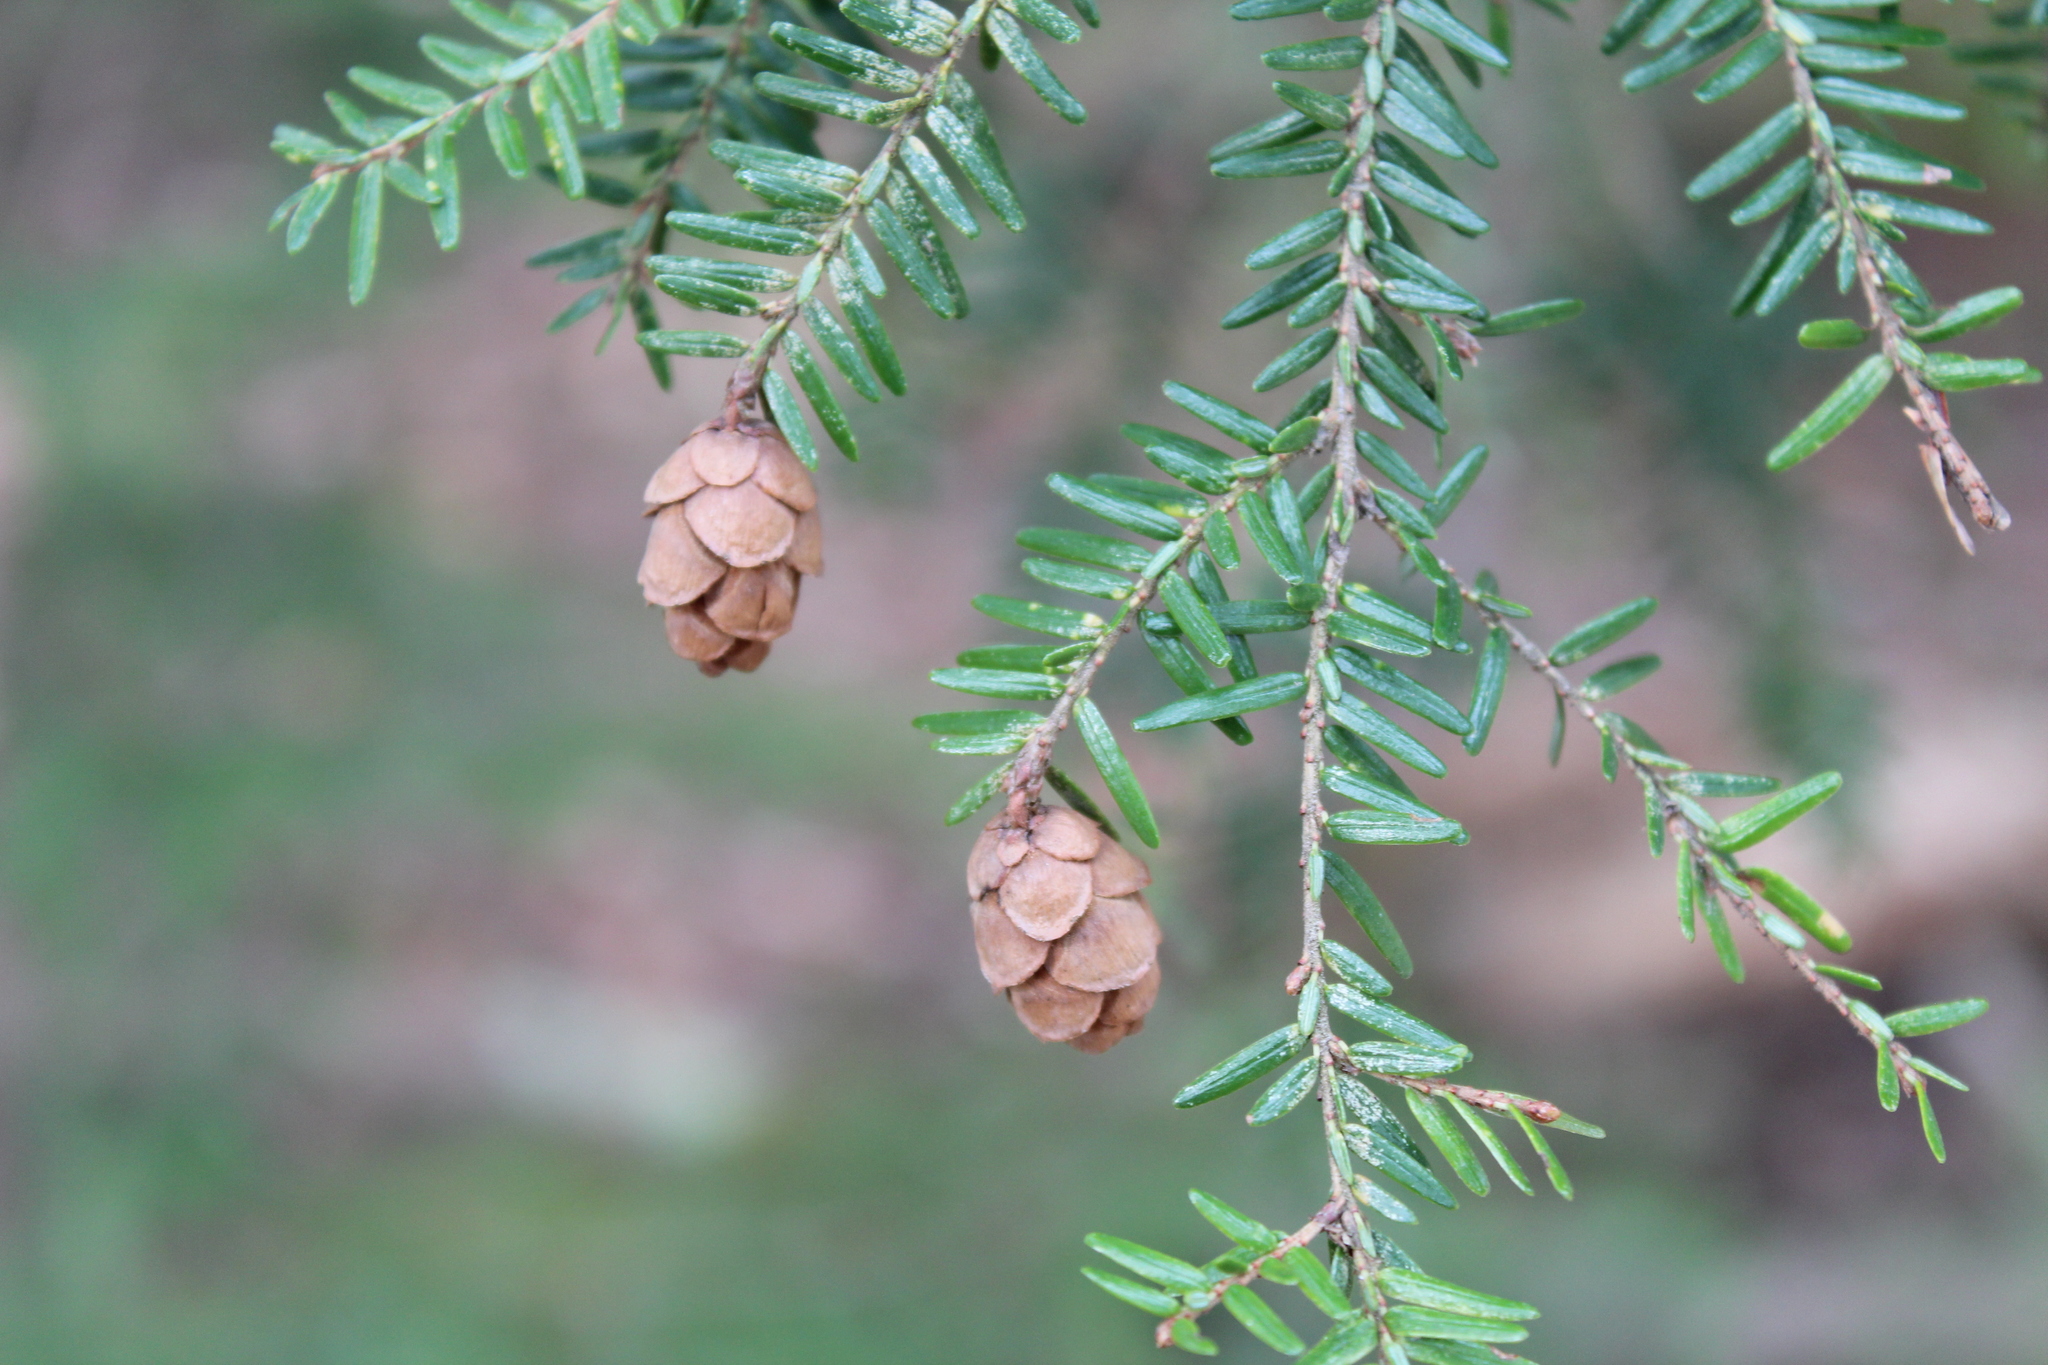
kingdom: Plantae
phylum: Tracheophyta
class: Pinopsida
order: Pinales
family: Pinaceae
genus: Tsuga
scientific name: Tsuga canadensis
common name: Eastern hemlock
